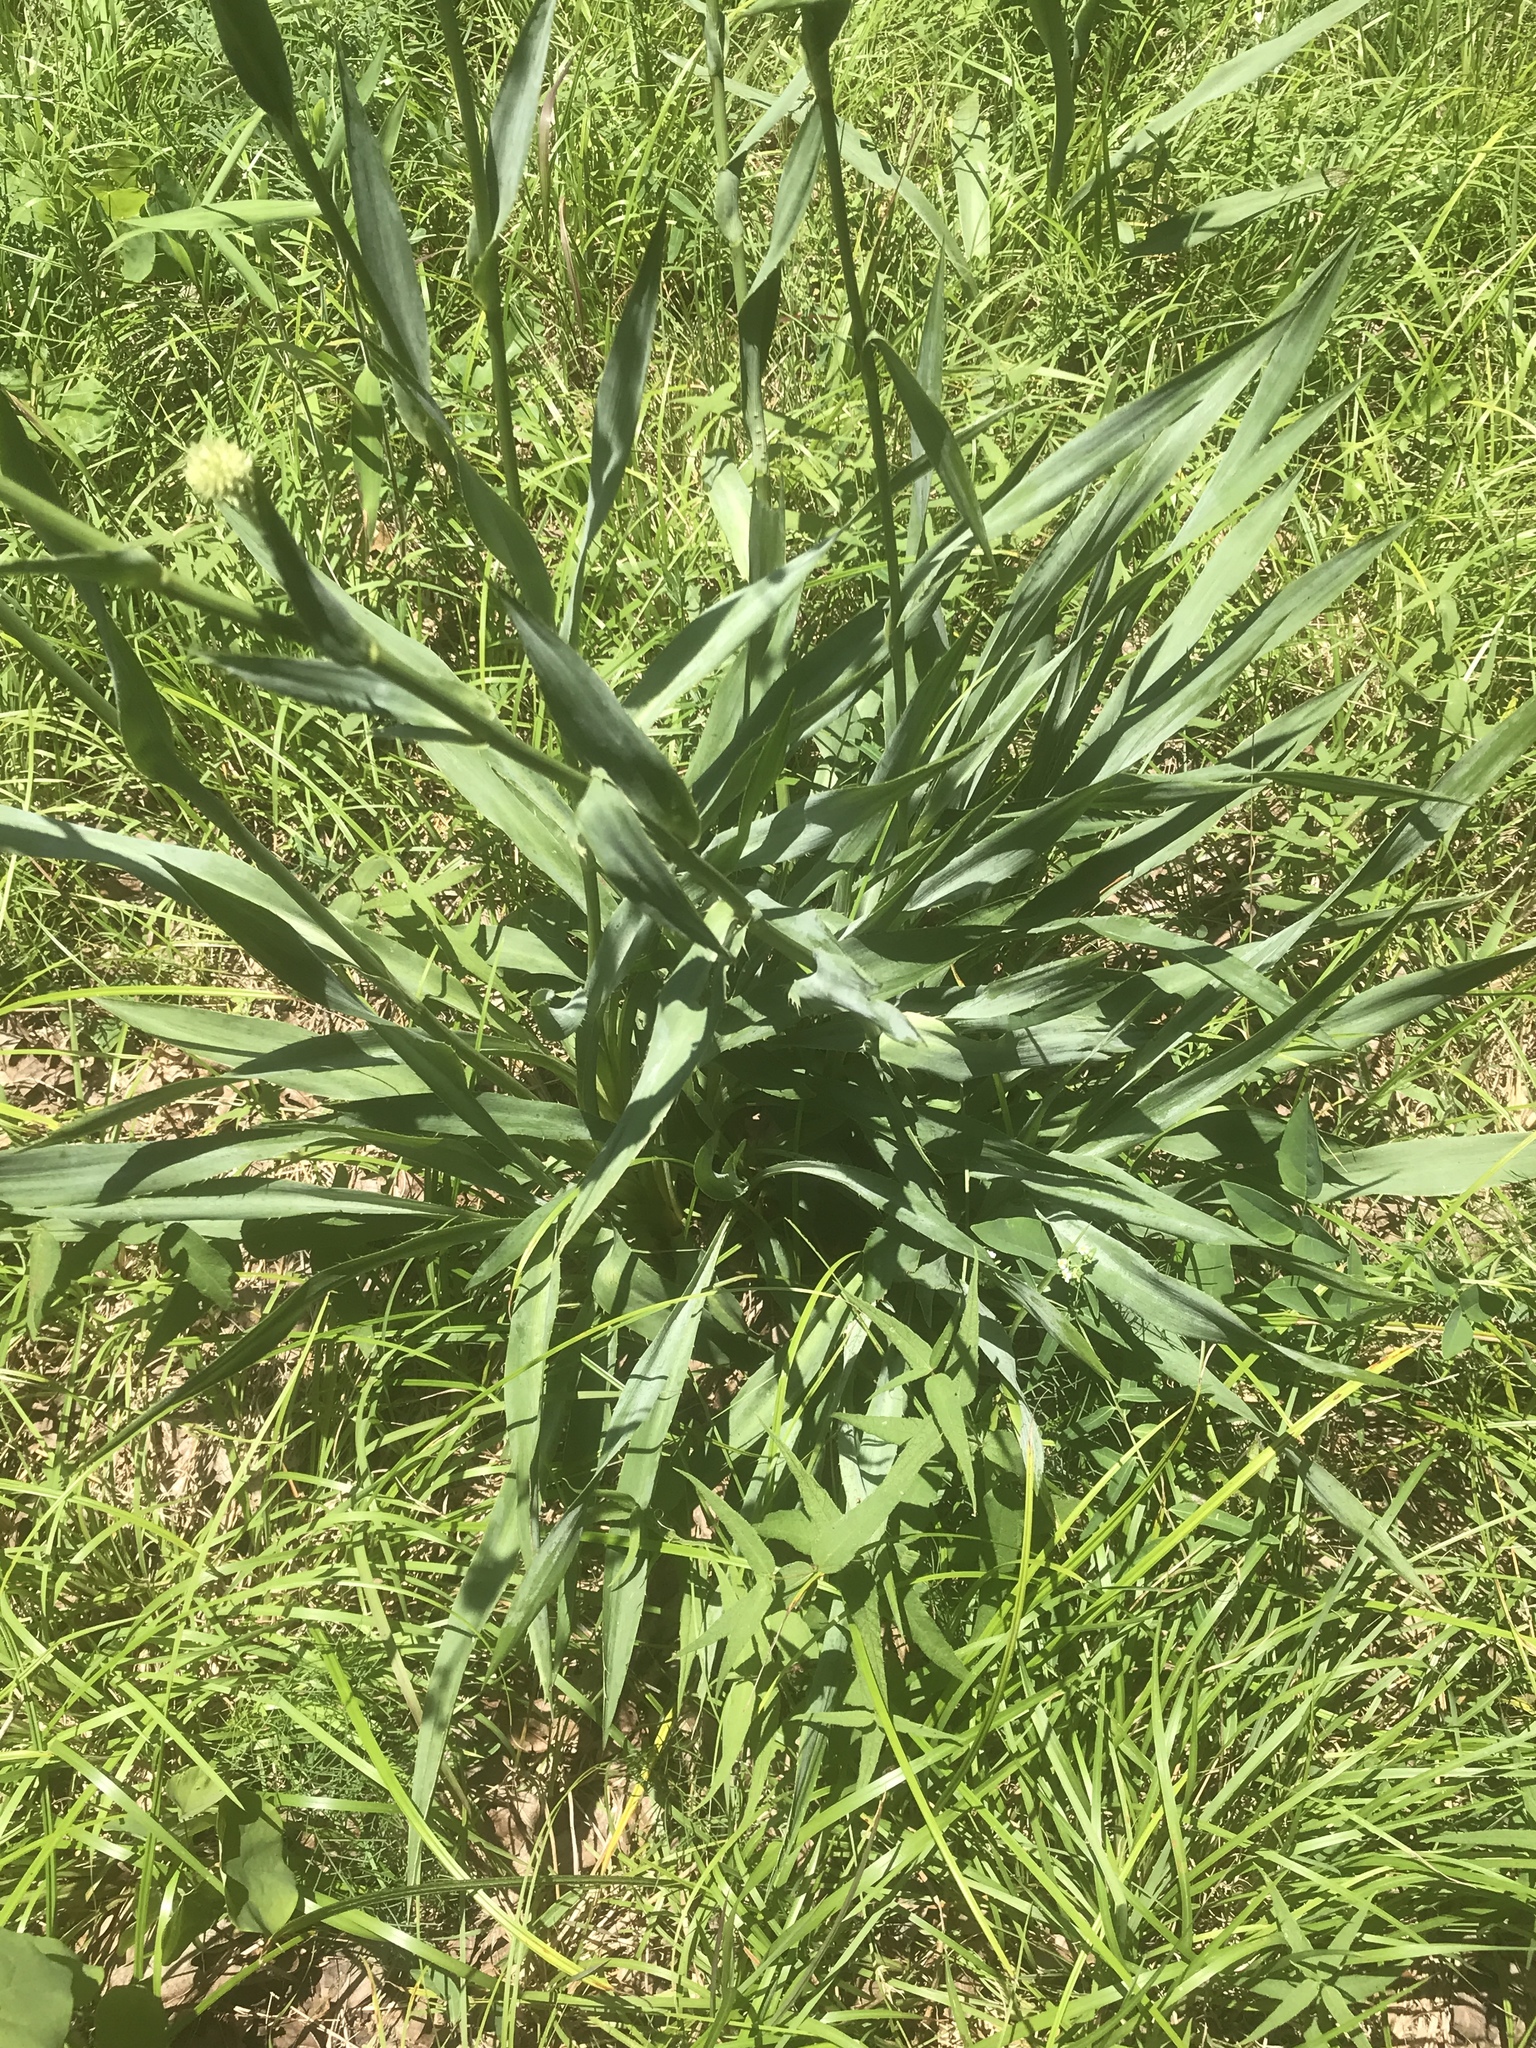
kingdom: Plantae
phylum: Tracheophyta
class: Magnoliopsida
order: Apiales
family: Apiaceae
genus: Eryngium
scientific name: Eryngium yuccifolium
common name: Button eryngo
